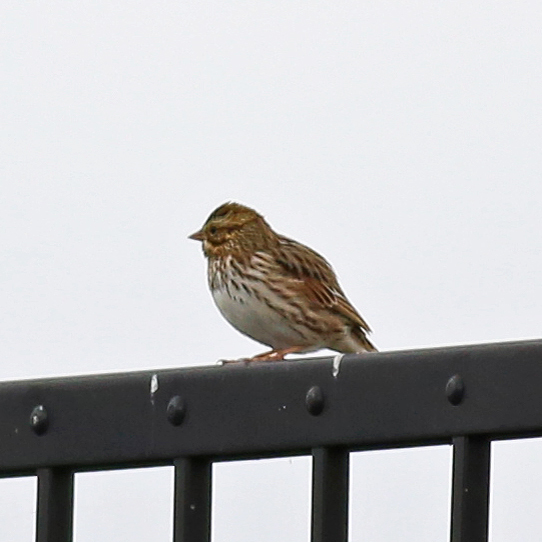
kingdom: Animalia
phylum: Chordata
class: Aves
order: Passeriformes
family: Passerellidae
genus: Passerculus
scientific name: Passerculus sandwichensis
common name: Savannah sparrow
